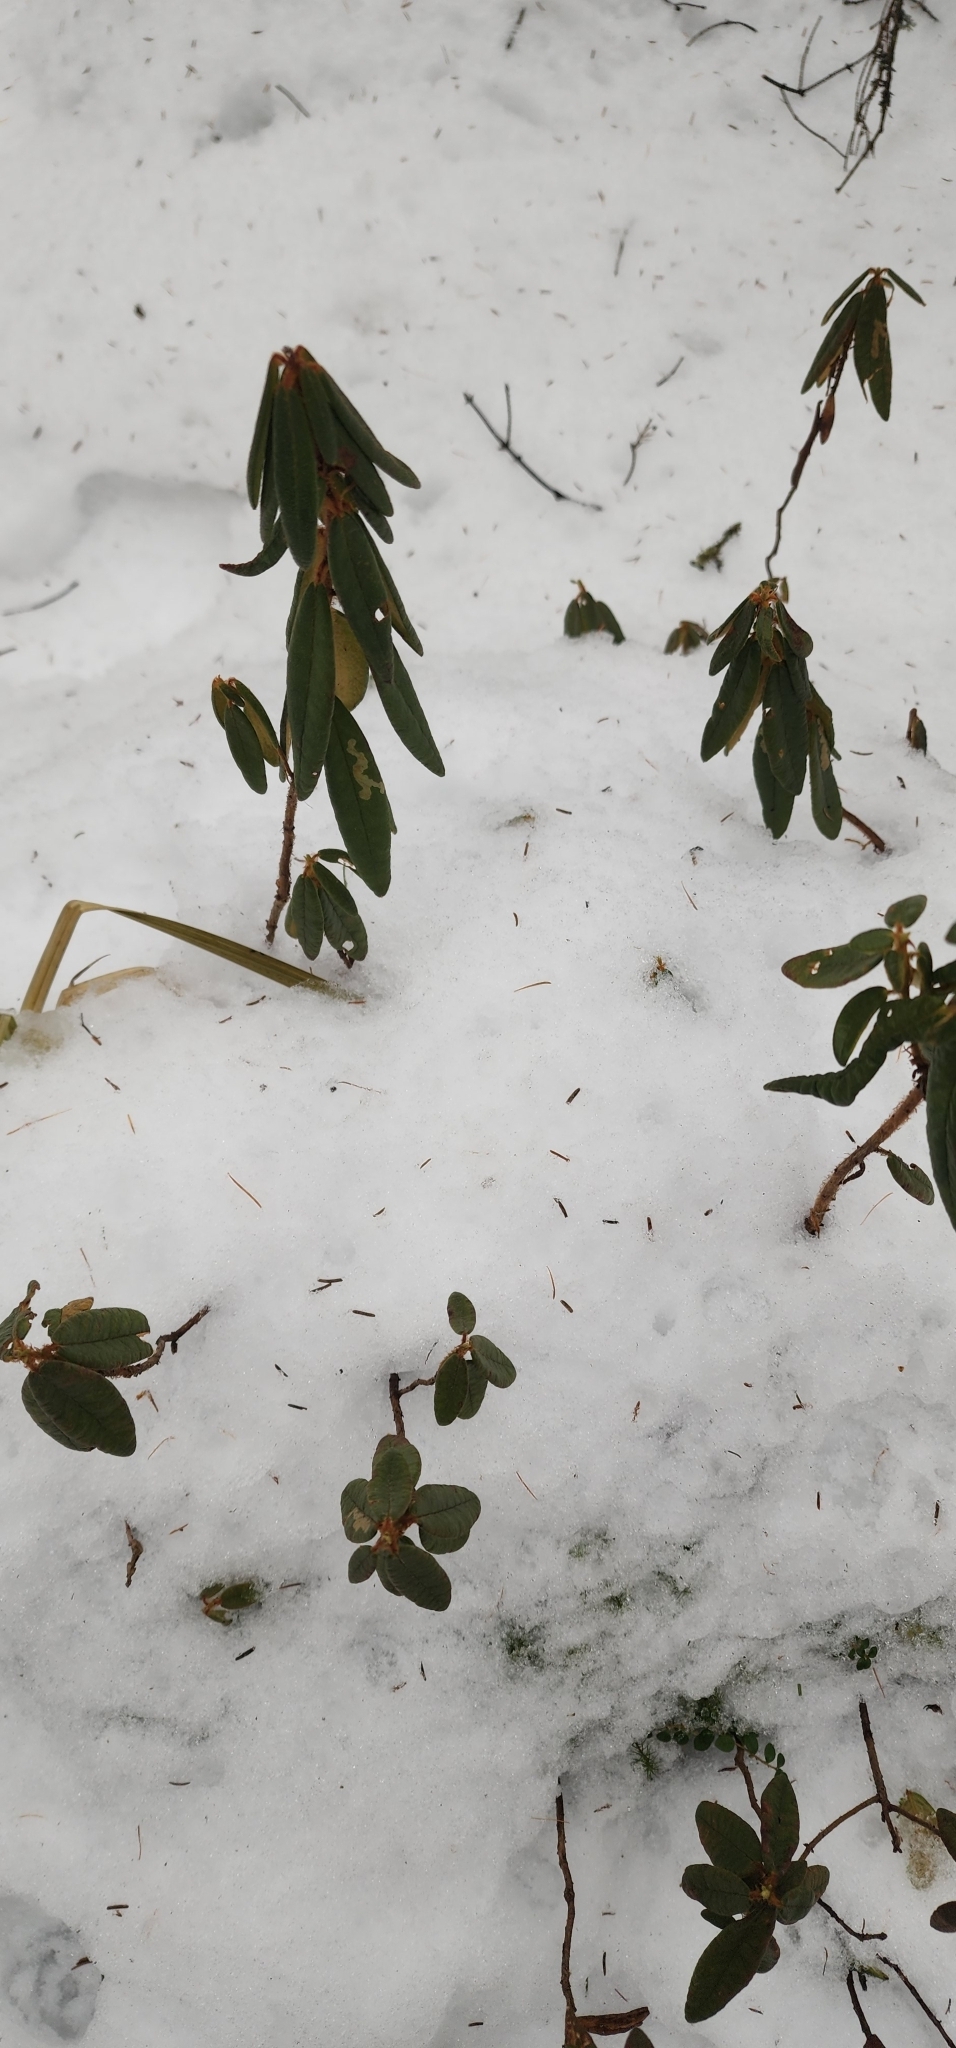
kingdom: Plantae
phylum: Tracheophyta
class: Magnoliopsida
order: Ericales
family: Ericaceae
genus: Rhododendron
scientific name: Rhododendron groenlandicum
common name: Bog labrador tea
